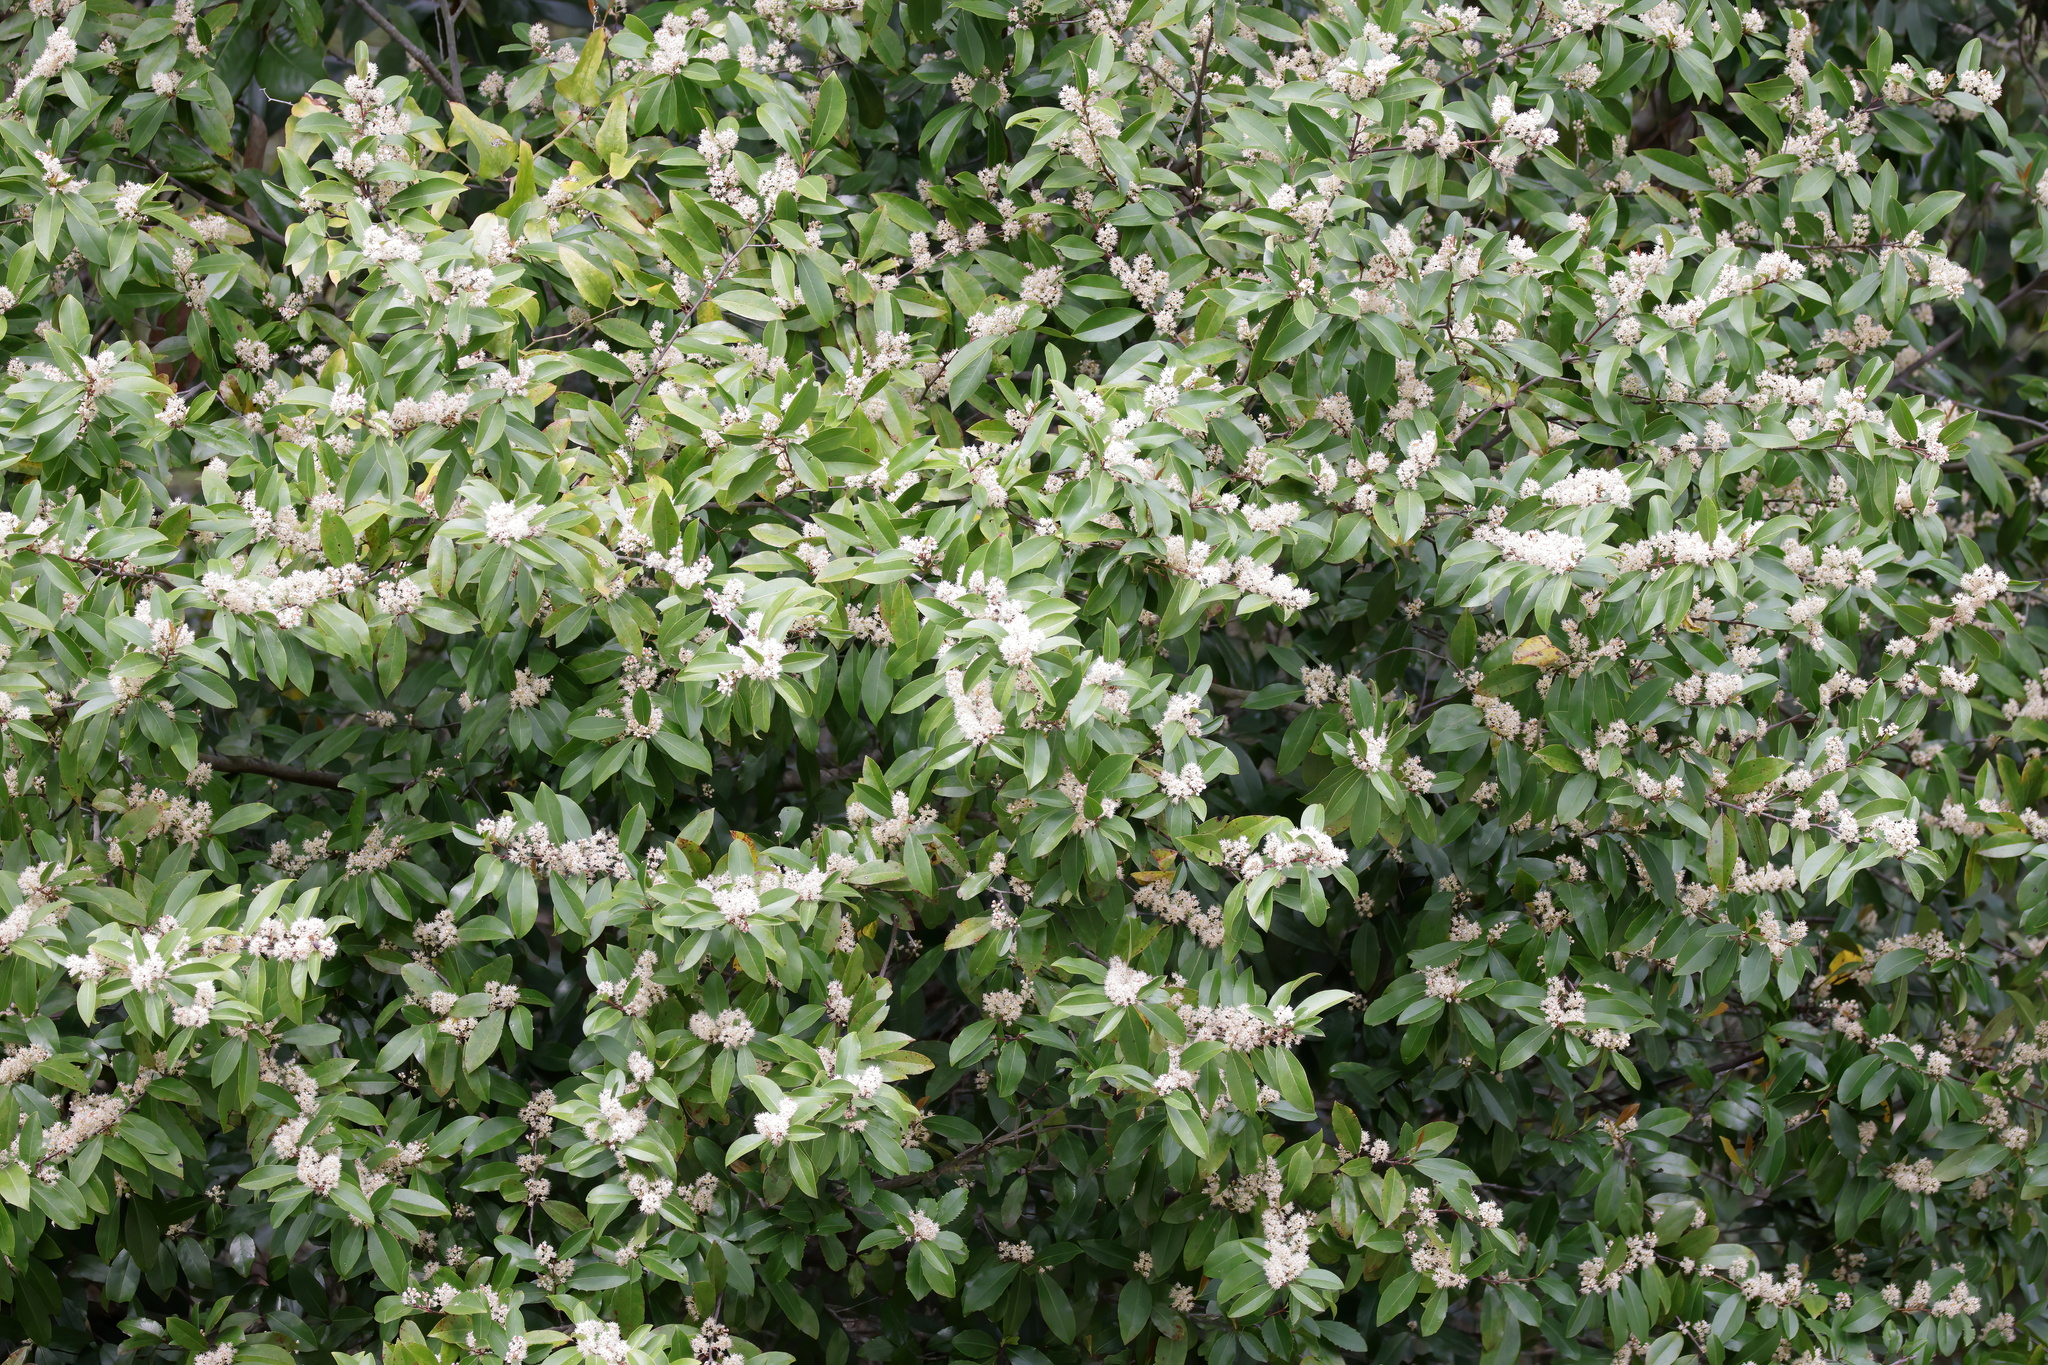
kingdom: Plantae
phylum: Tracheophyta
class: Magnoliopsida
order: Rosales
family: Rosaceae
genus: Prunus
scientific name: Prunus caroliniana
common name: Carolina laurel cherry
